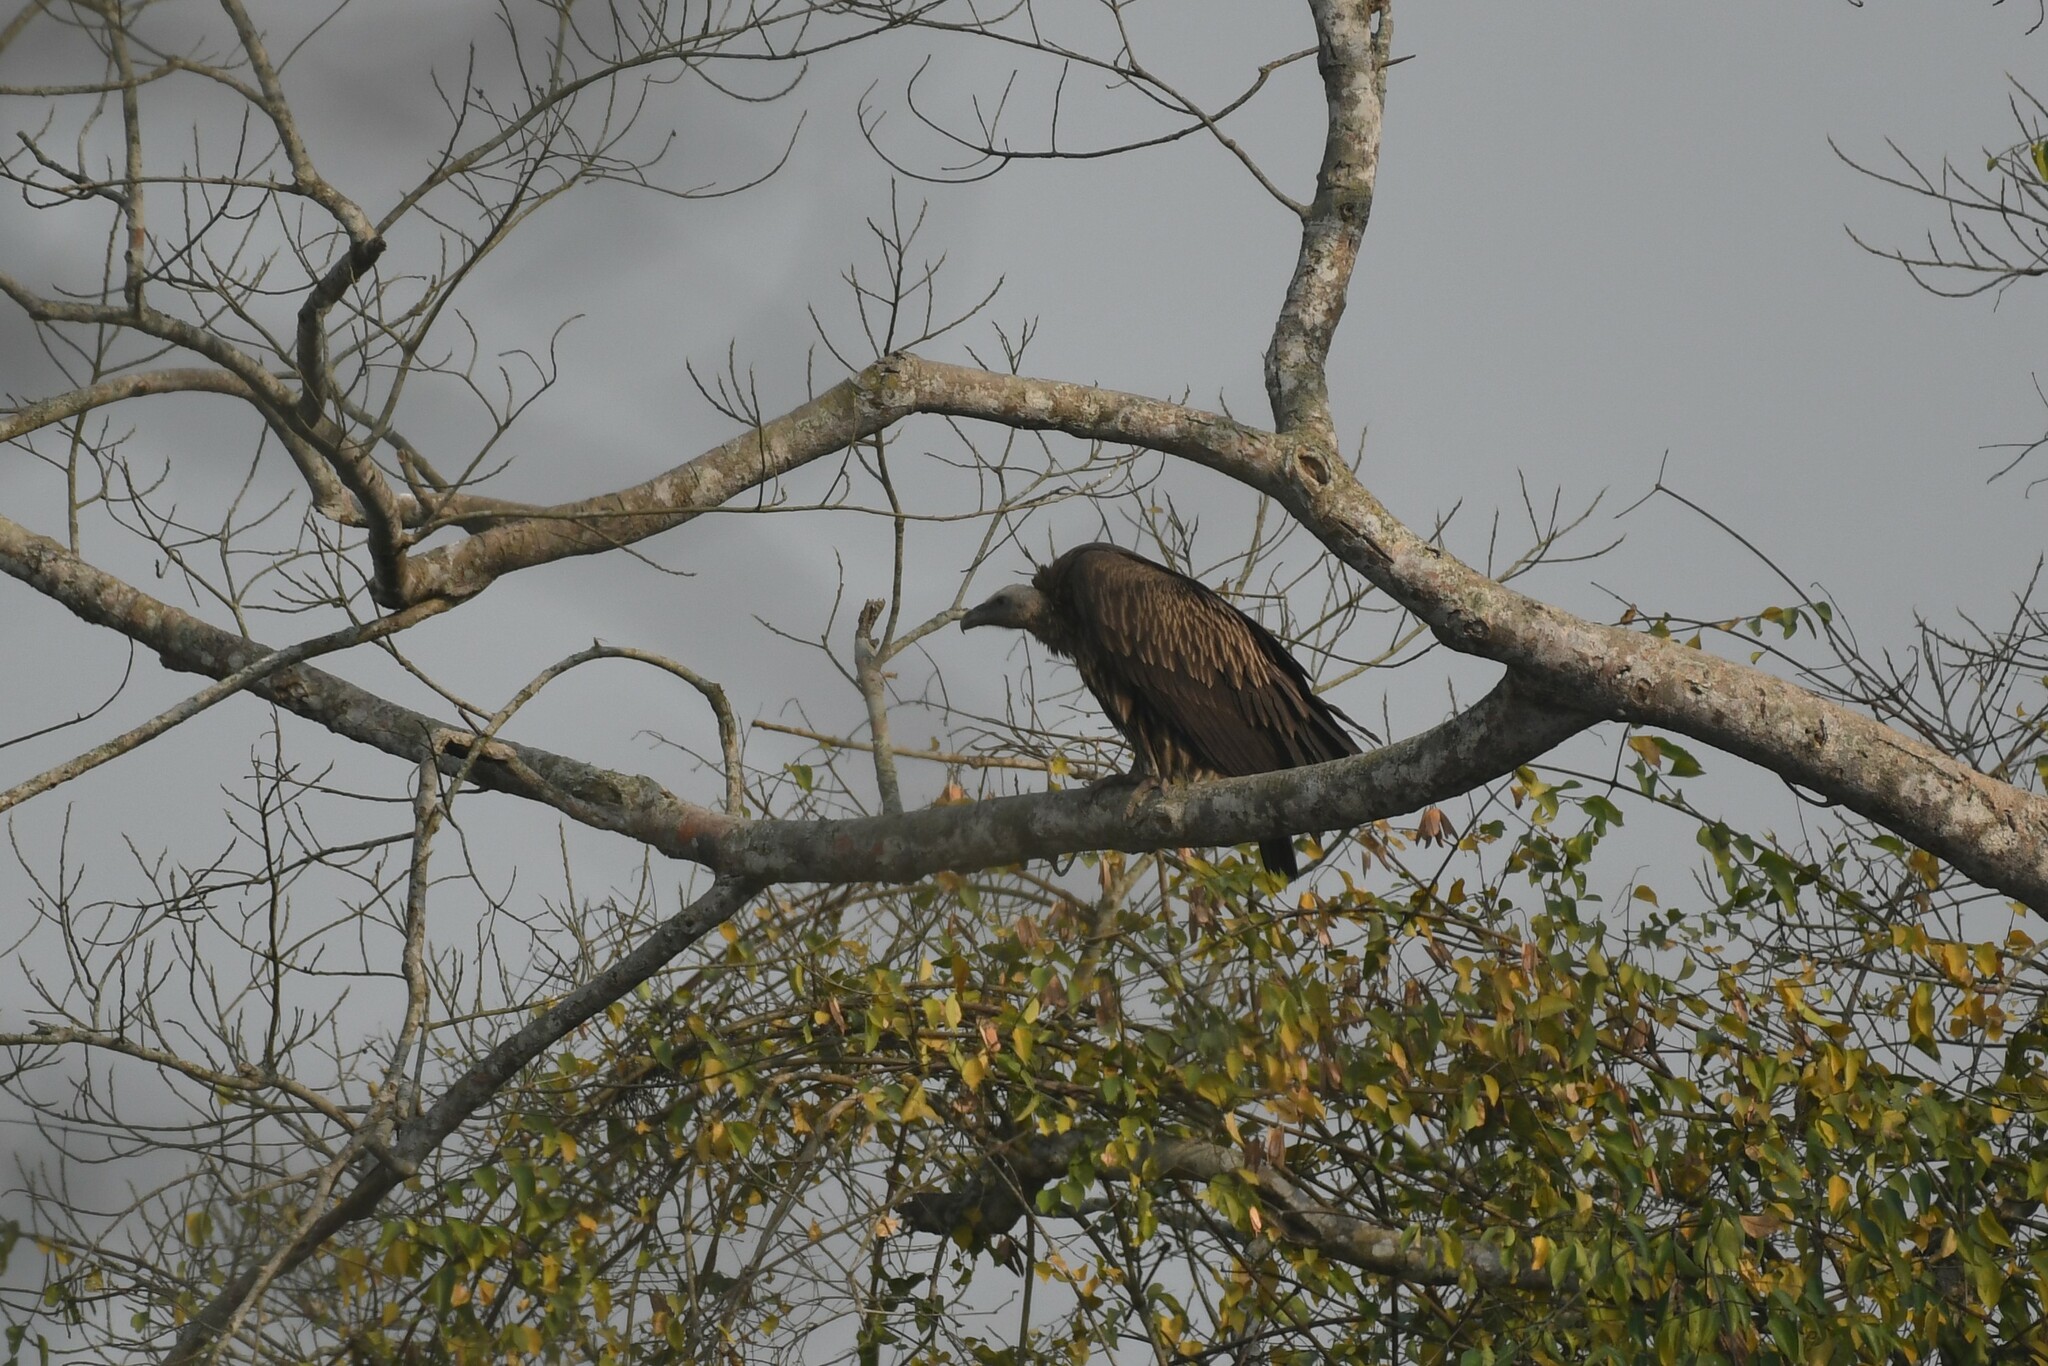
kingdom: Animalia
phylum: Chordata
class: Aves
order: Accipitriformes
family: Accipitridae
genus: Gyps
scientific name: Gyps himalayensis
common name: Himalayan griffon
